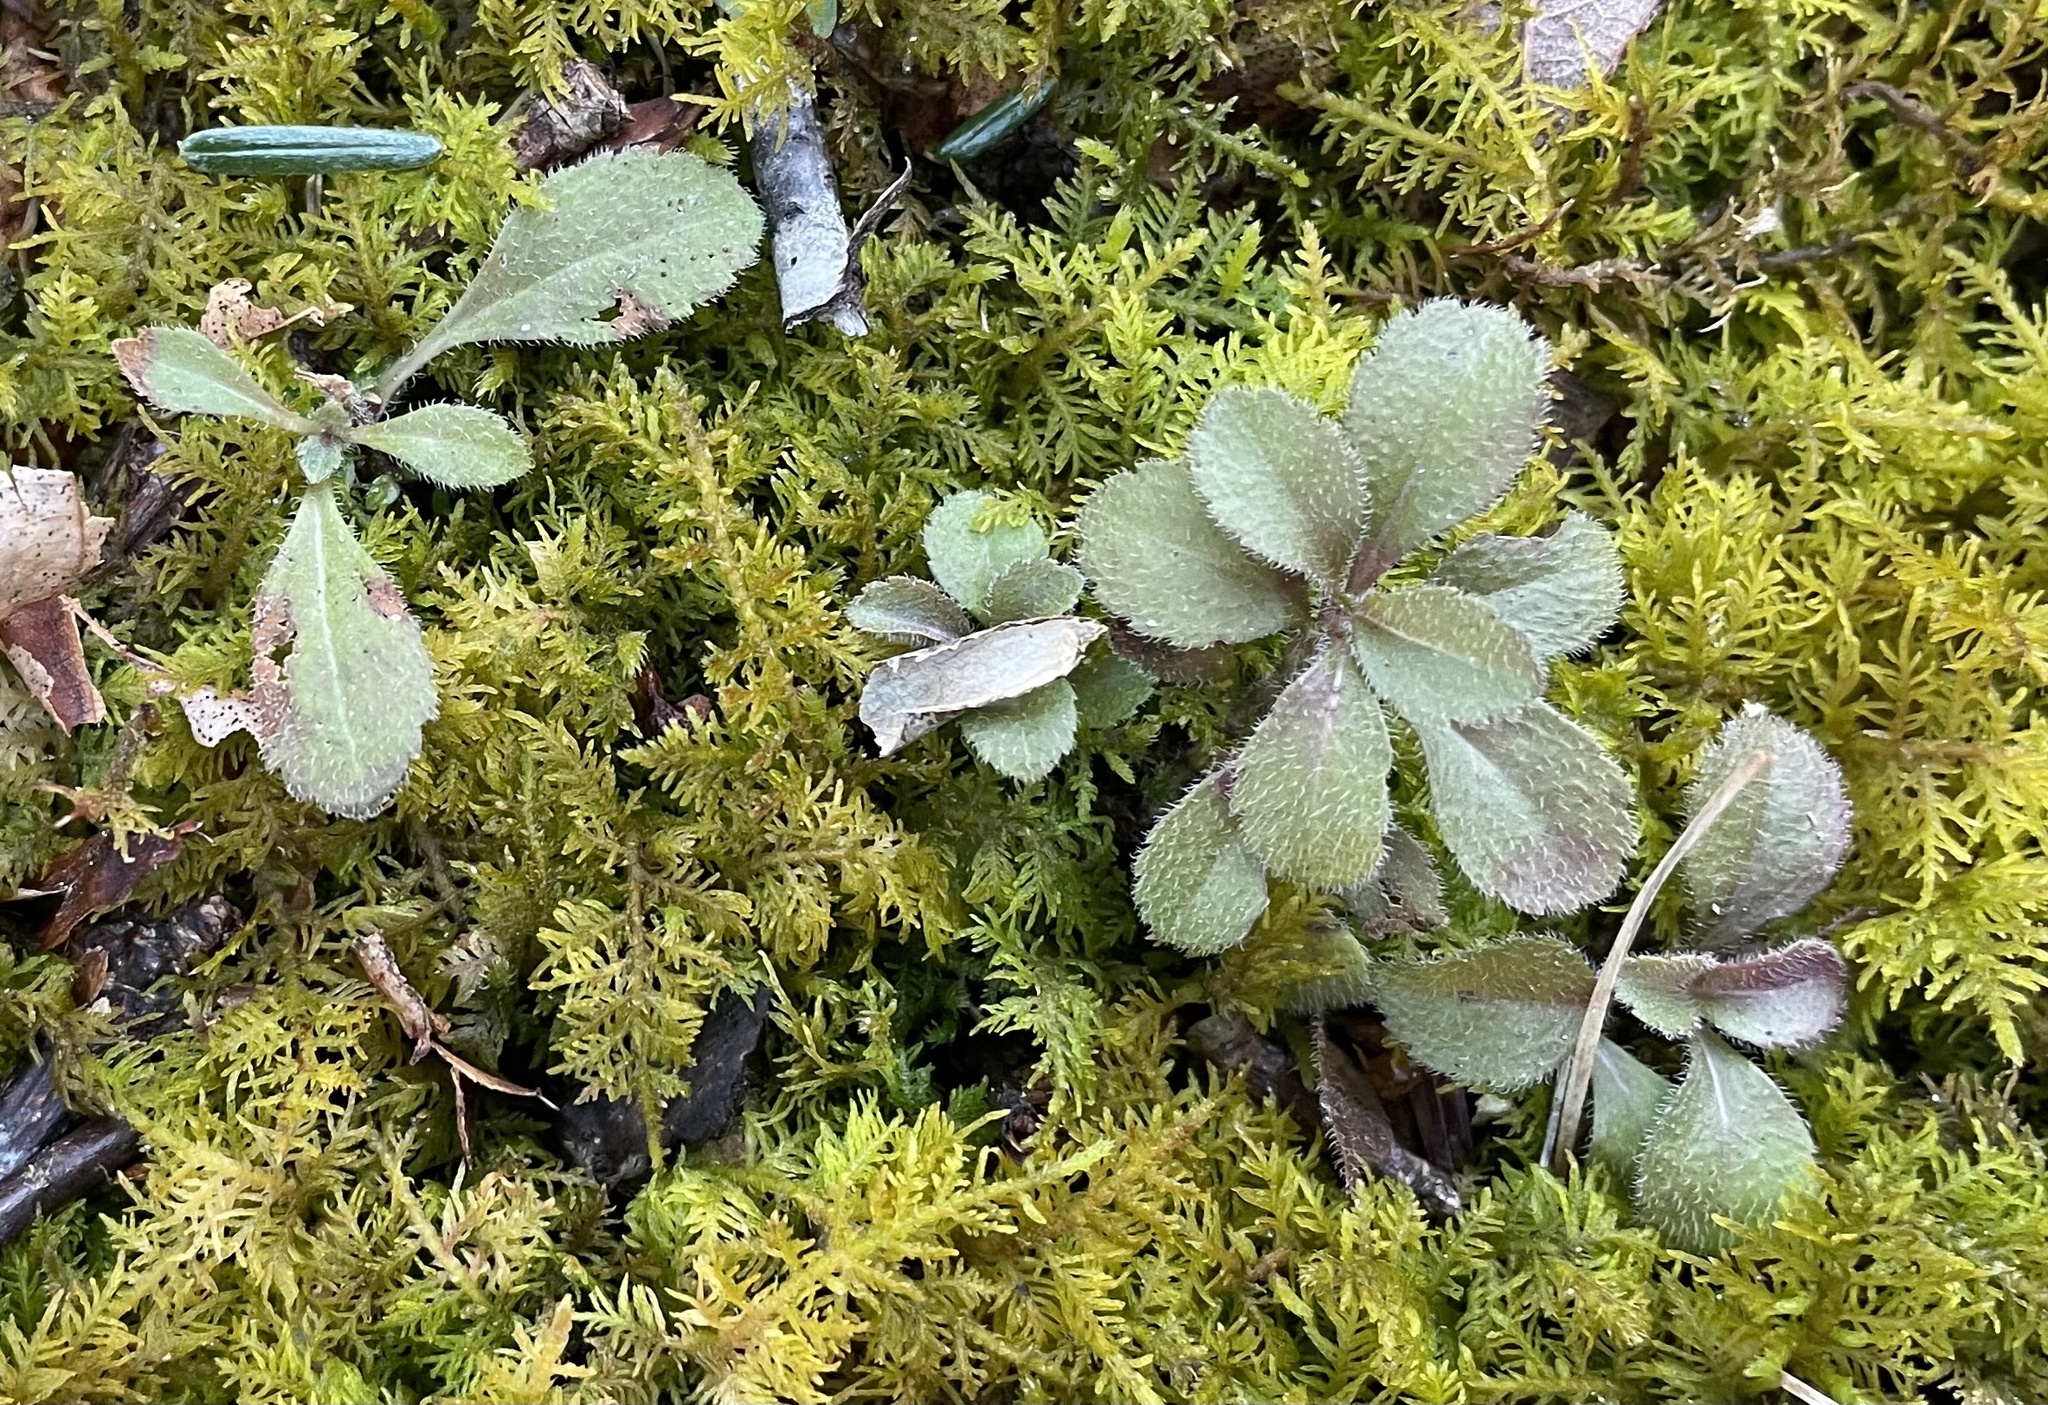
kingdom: Plantae
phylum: Tracheophyta
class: Magnoliopsida
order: Lamiales
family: Plantaginaceae
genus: Veronica
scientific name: Veronica officinalis
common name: Common speedwell
